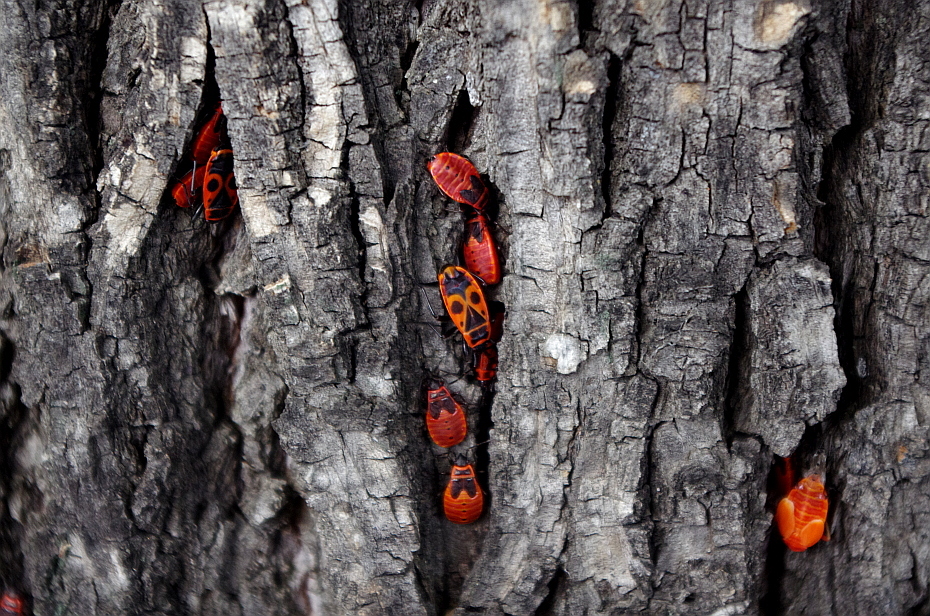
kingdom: Animalia
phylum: Arthropoda
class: Insecta
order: Hemiptera
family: Pyrrhocoridae
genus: Pyrrhocoris
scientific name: Pyrrhocoris apterus
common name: Firebug
